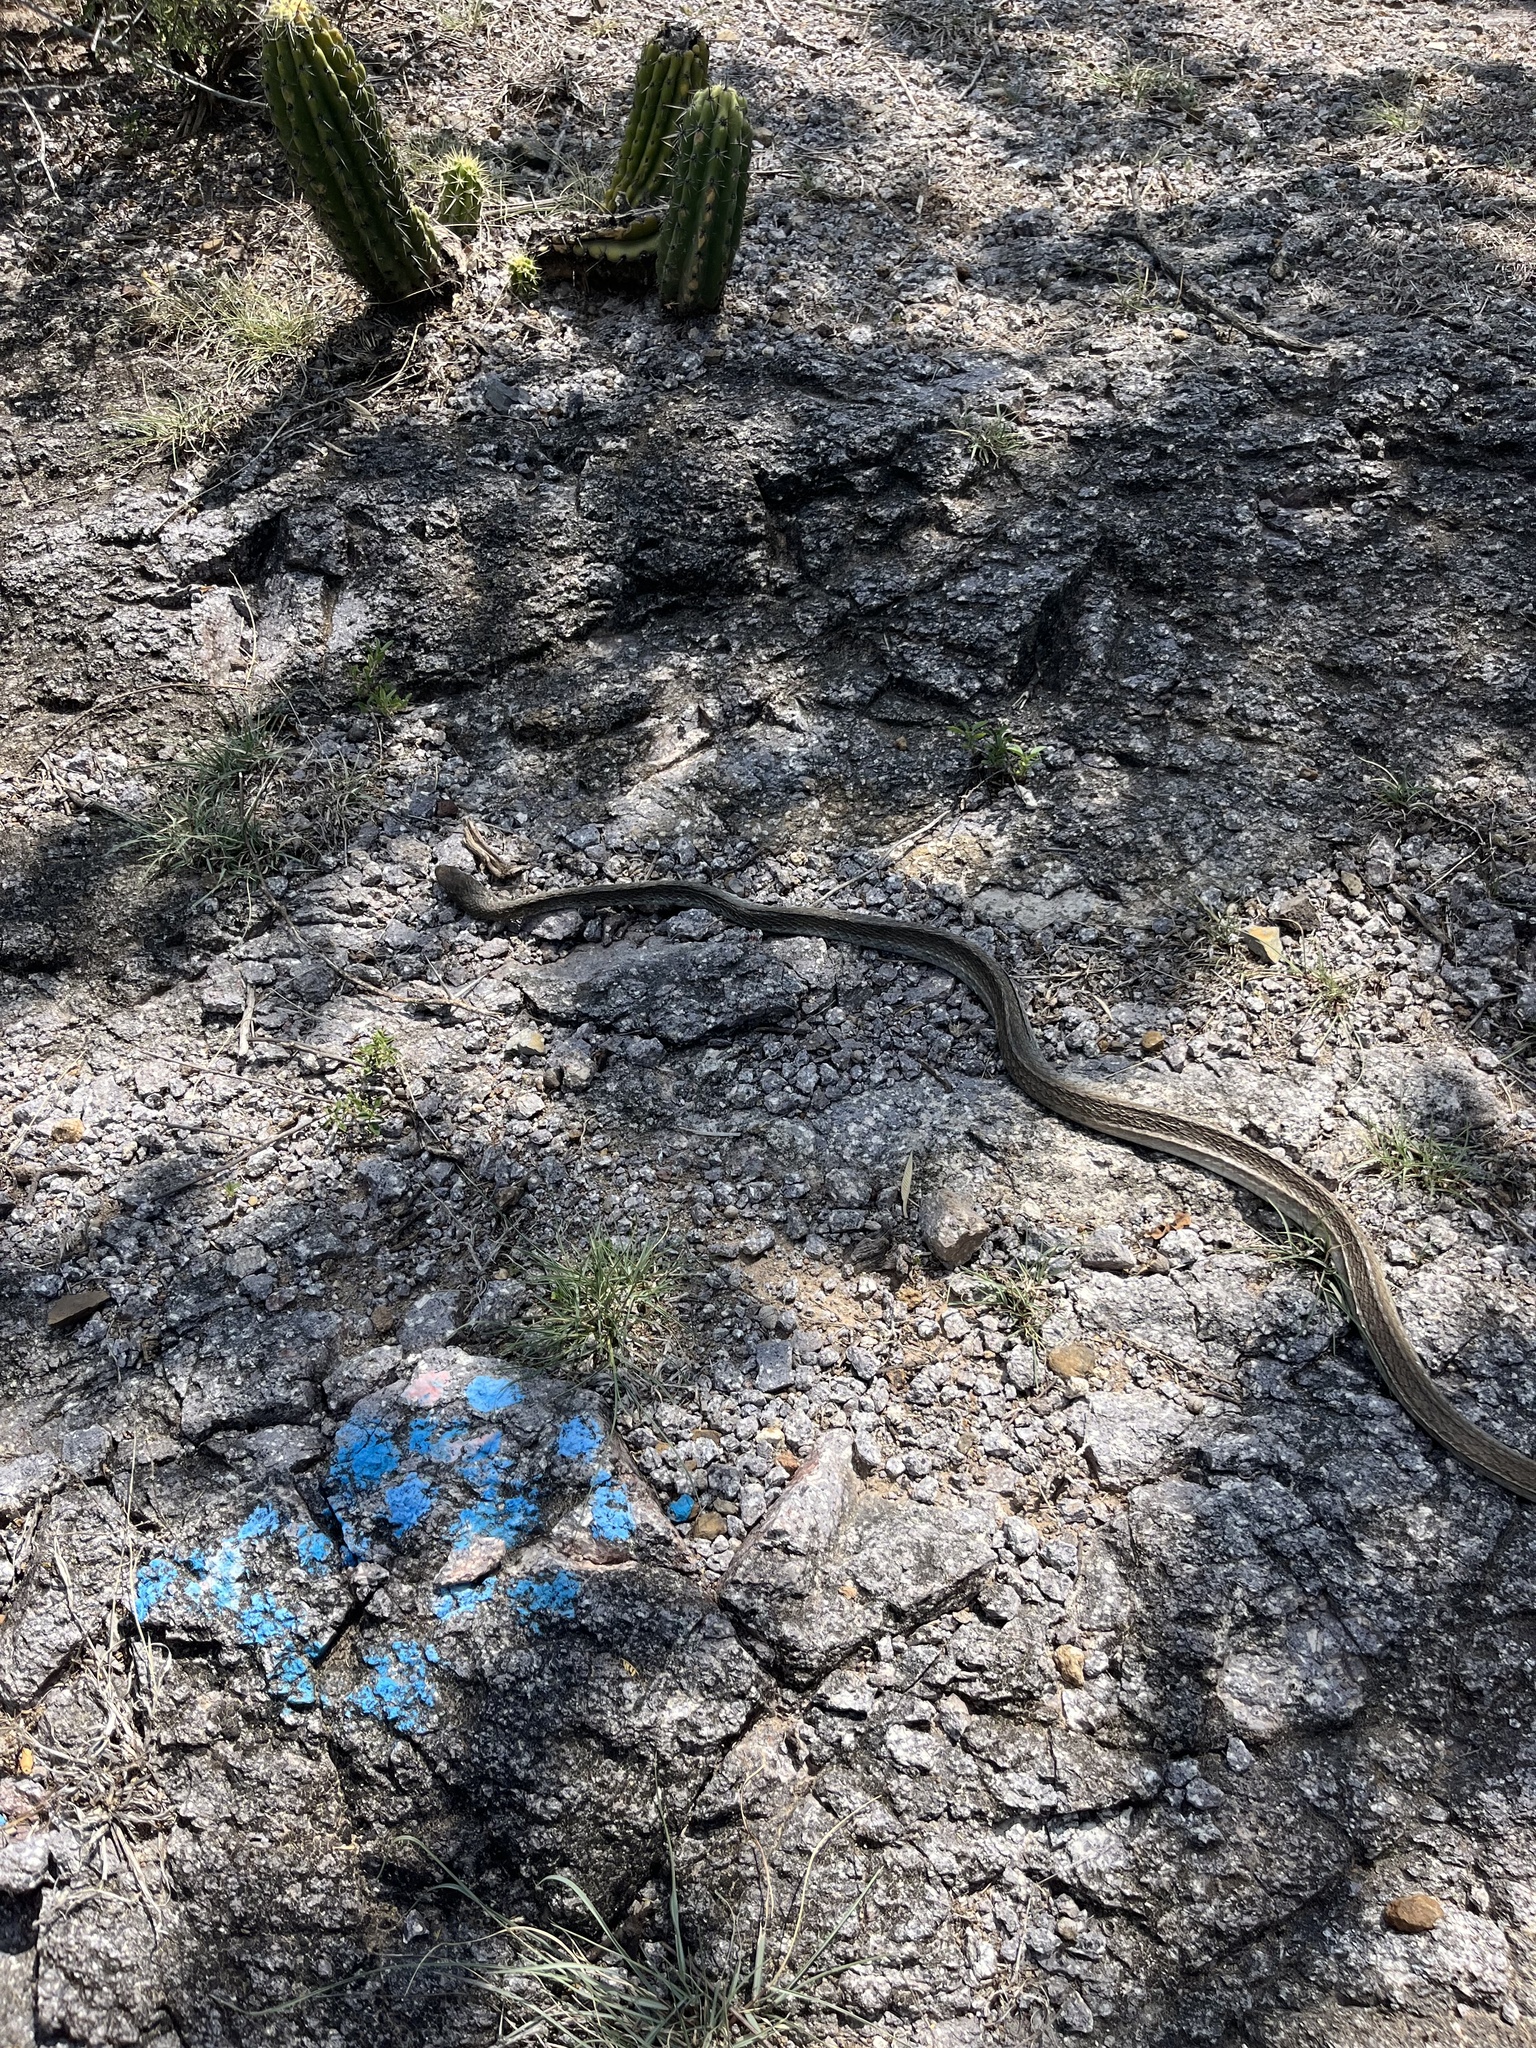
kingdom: Animalia
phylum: Chordata
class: Squamata
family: Colubridae
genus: Masticophis
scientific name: Masticophis mentovarius
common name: Neotropical whip snake
